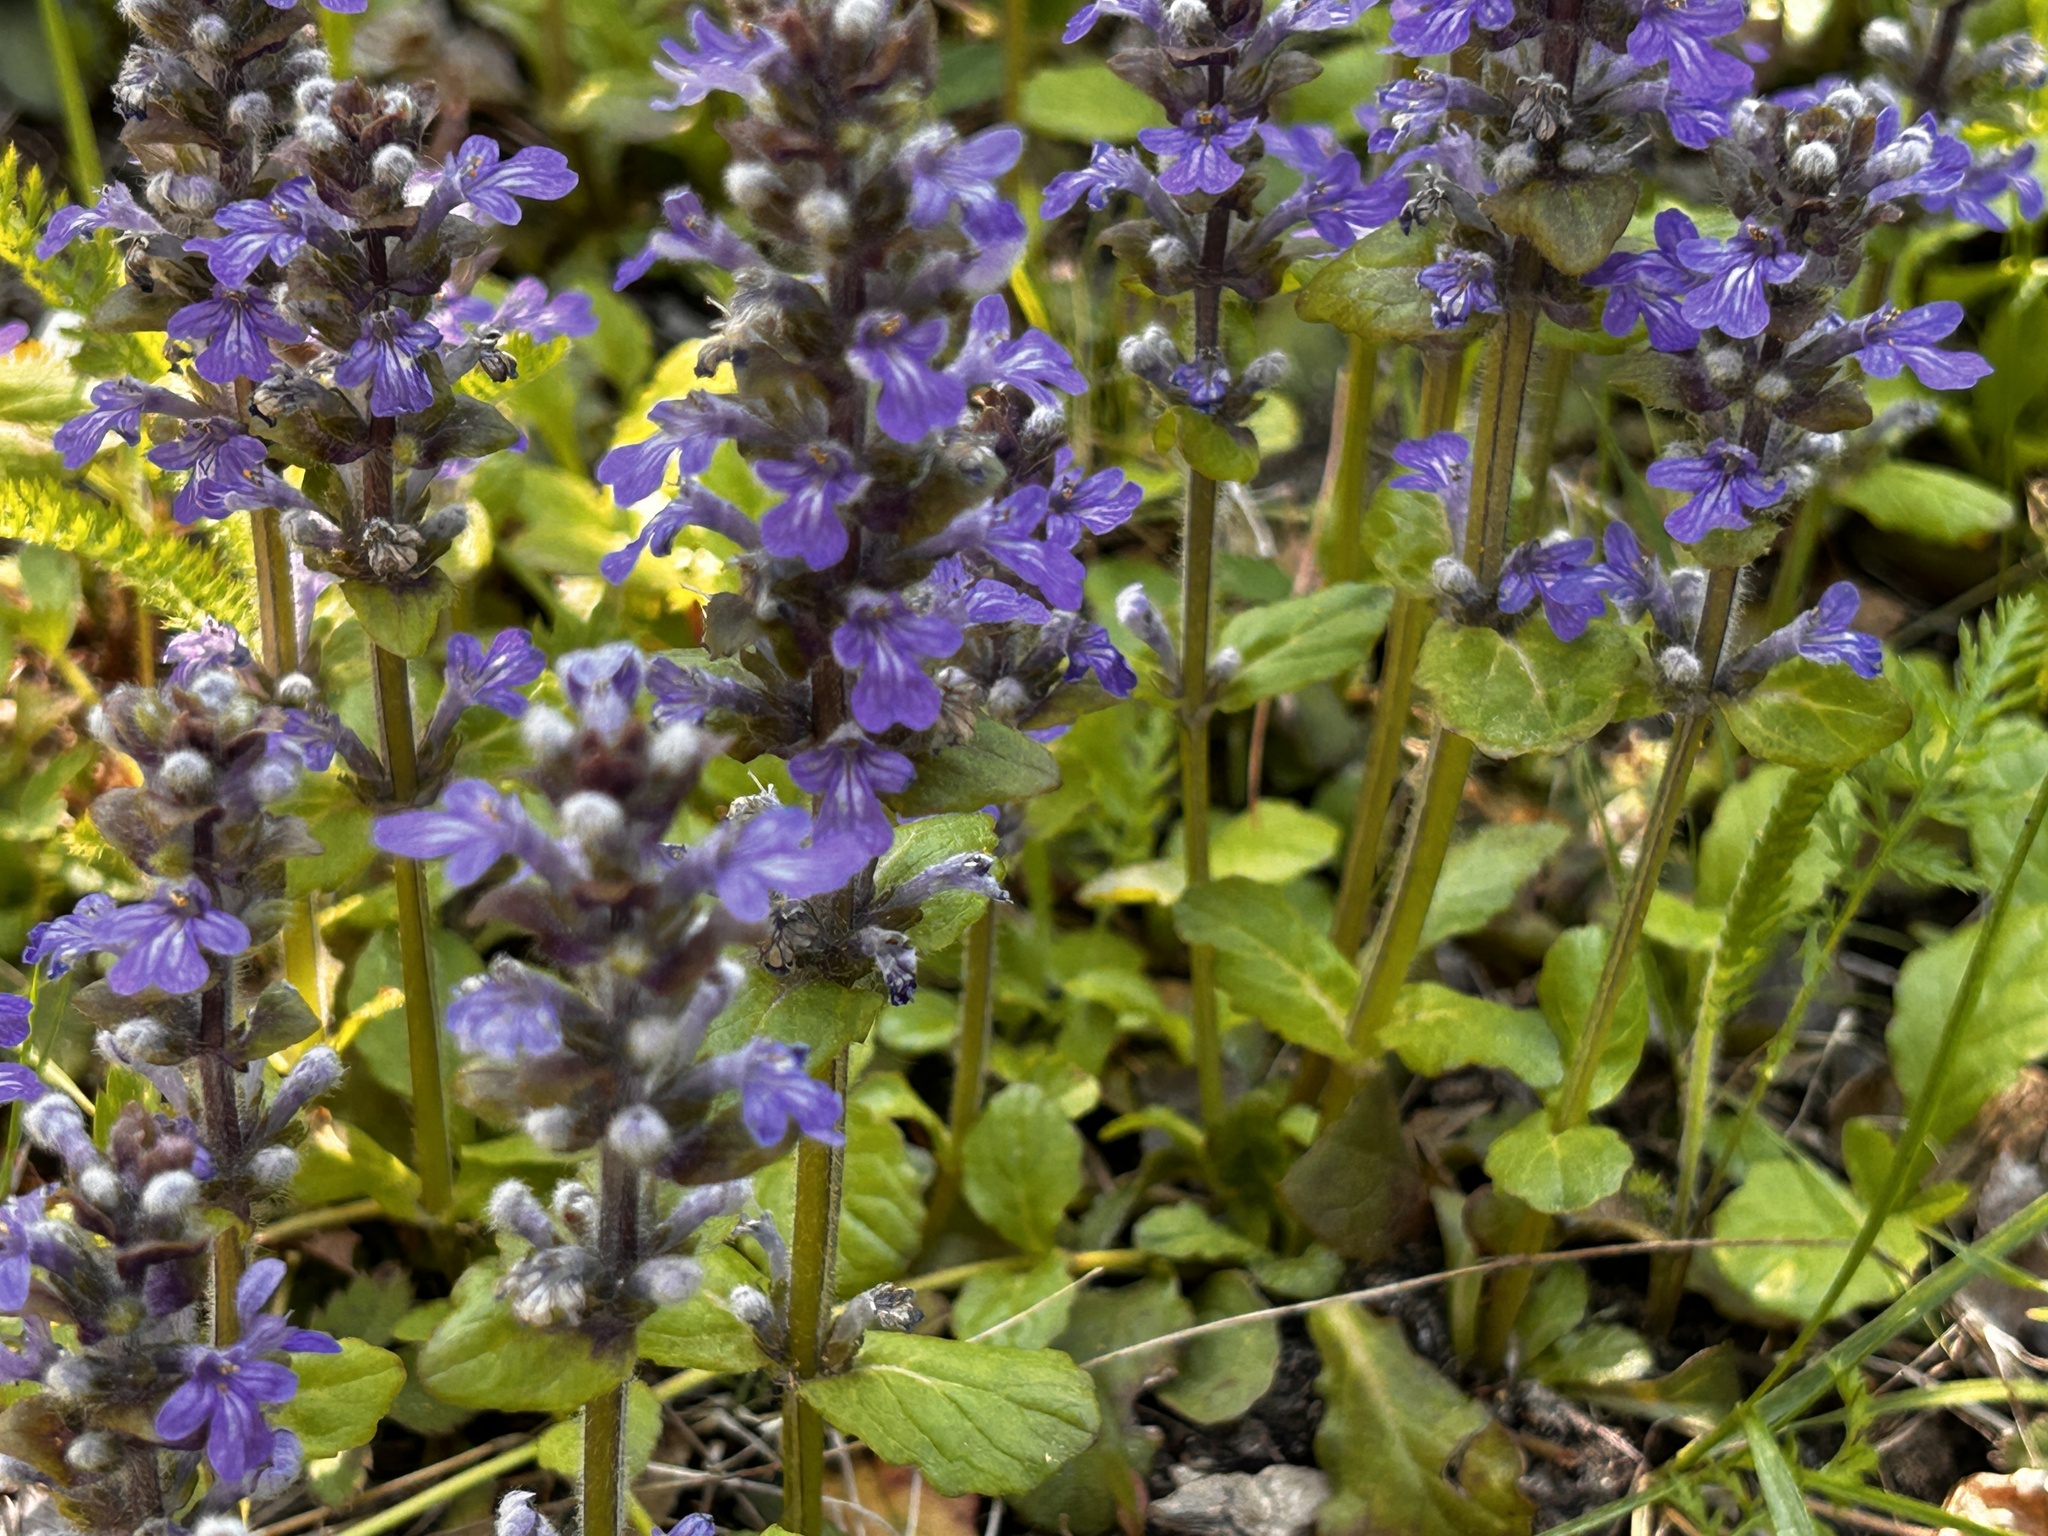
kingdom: Plantae
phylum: Tracheophyta
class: Magnoliopsida
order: Lamiales
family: Lamiaceae
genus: Ajuga
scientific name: Ajuga reptans
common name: Bugle
